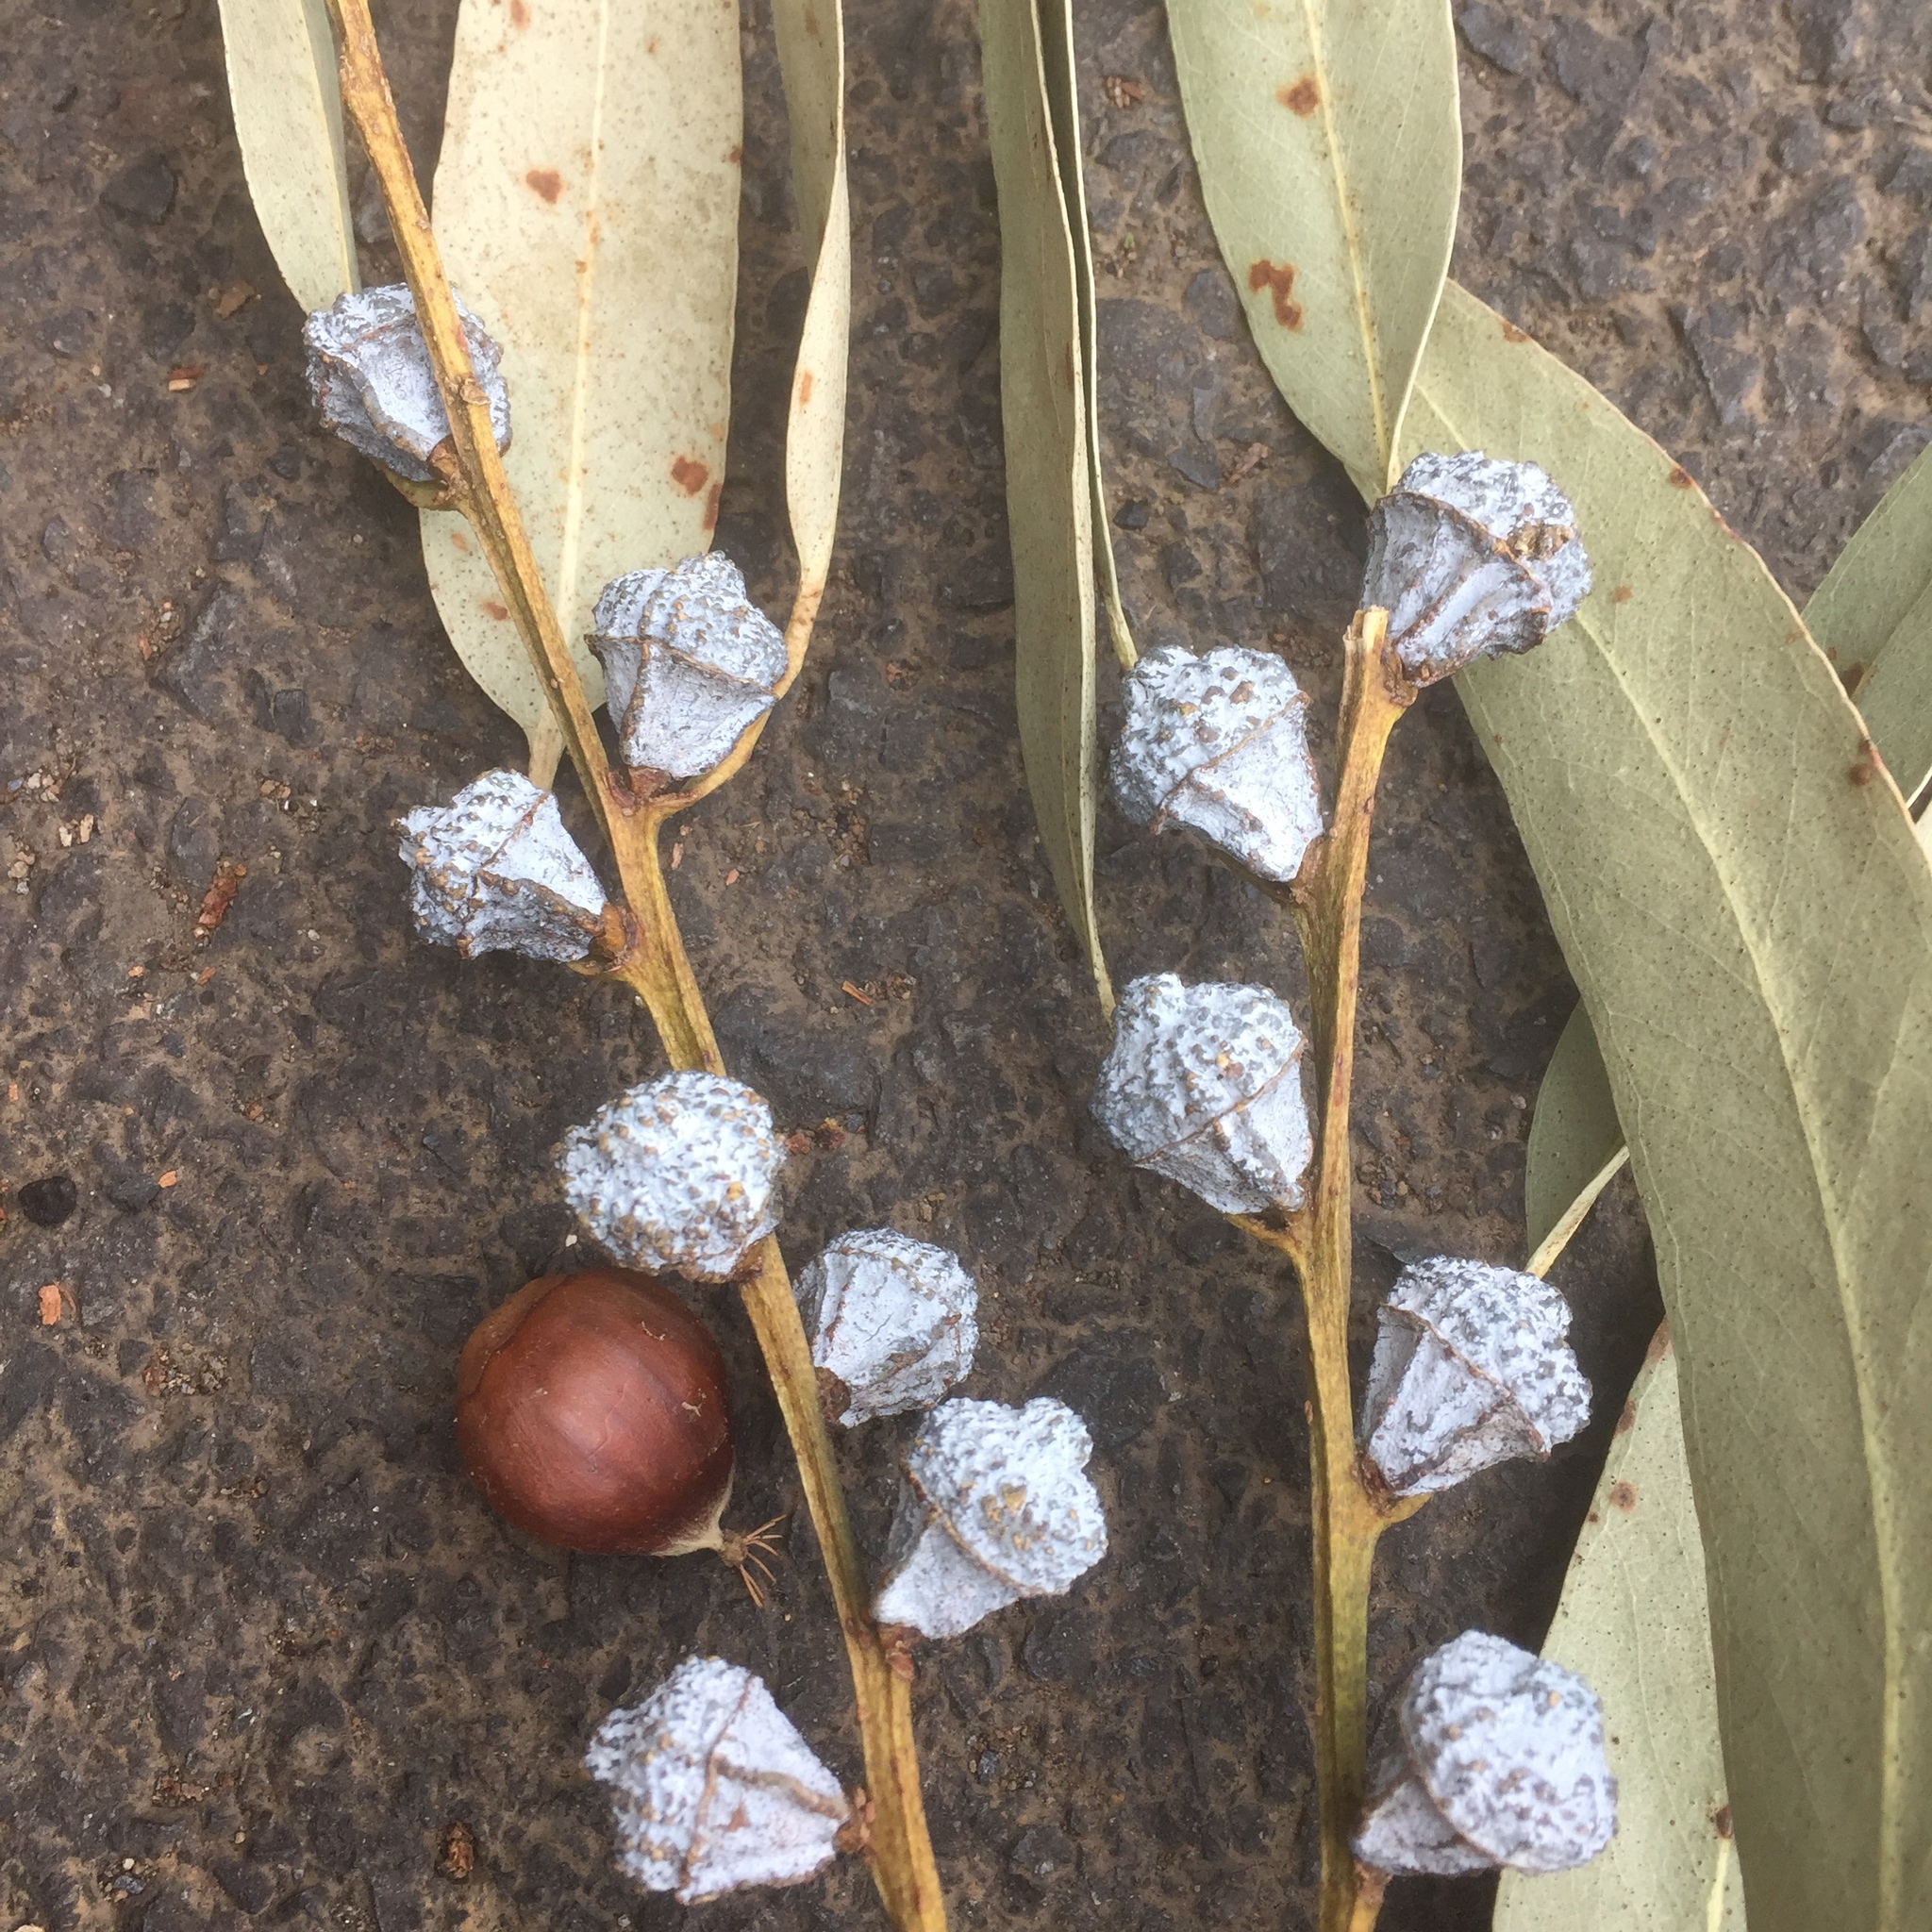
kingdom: Plantae
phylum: Tracheophyta
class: Magnoliopsida
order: Myrtales
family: Myrtaceae
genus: Eucalyptus
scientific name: Eucalyptus globulus
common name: Southern blue-gum
